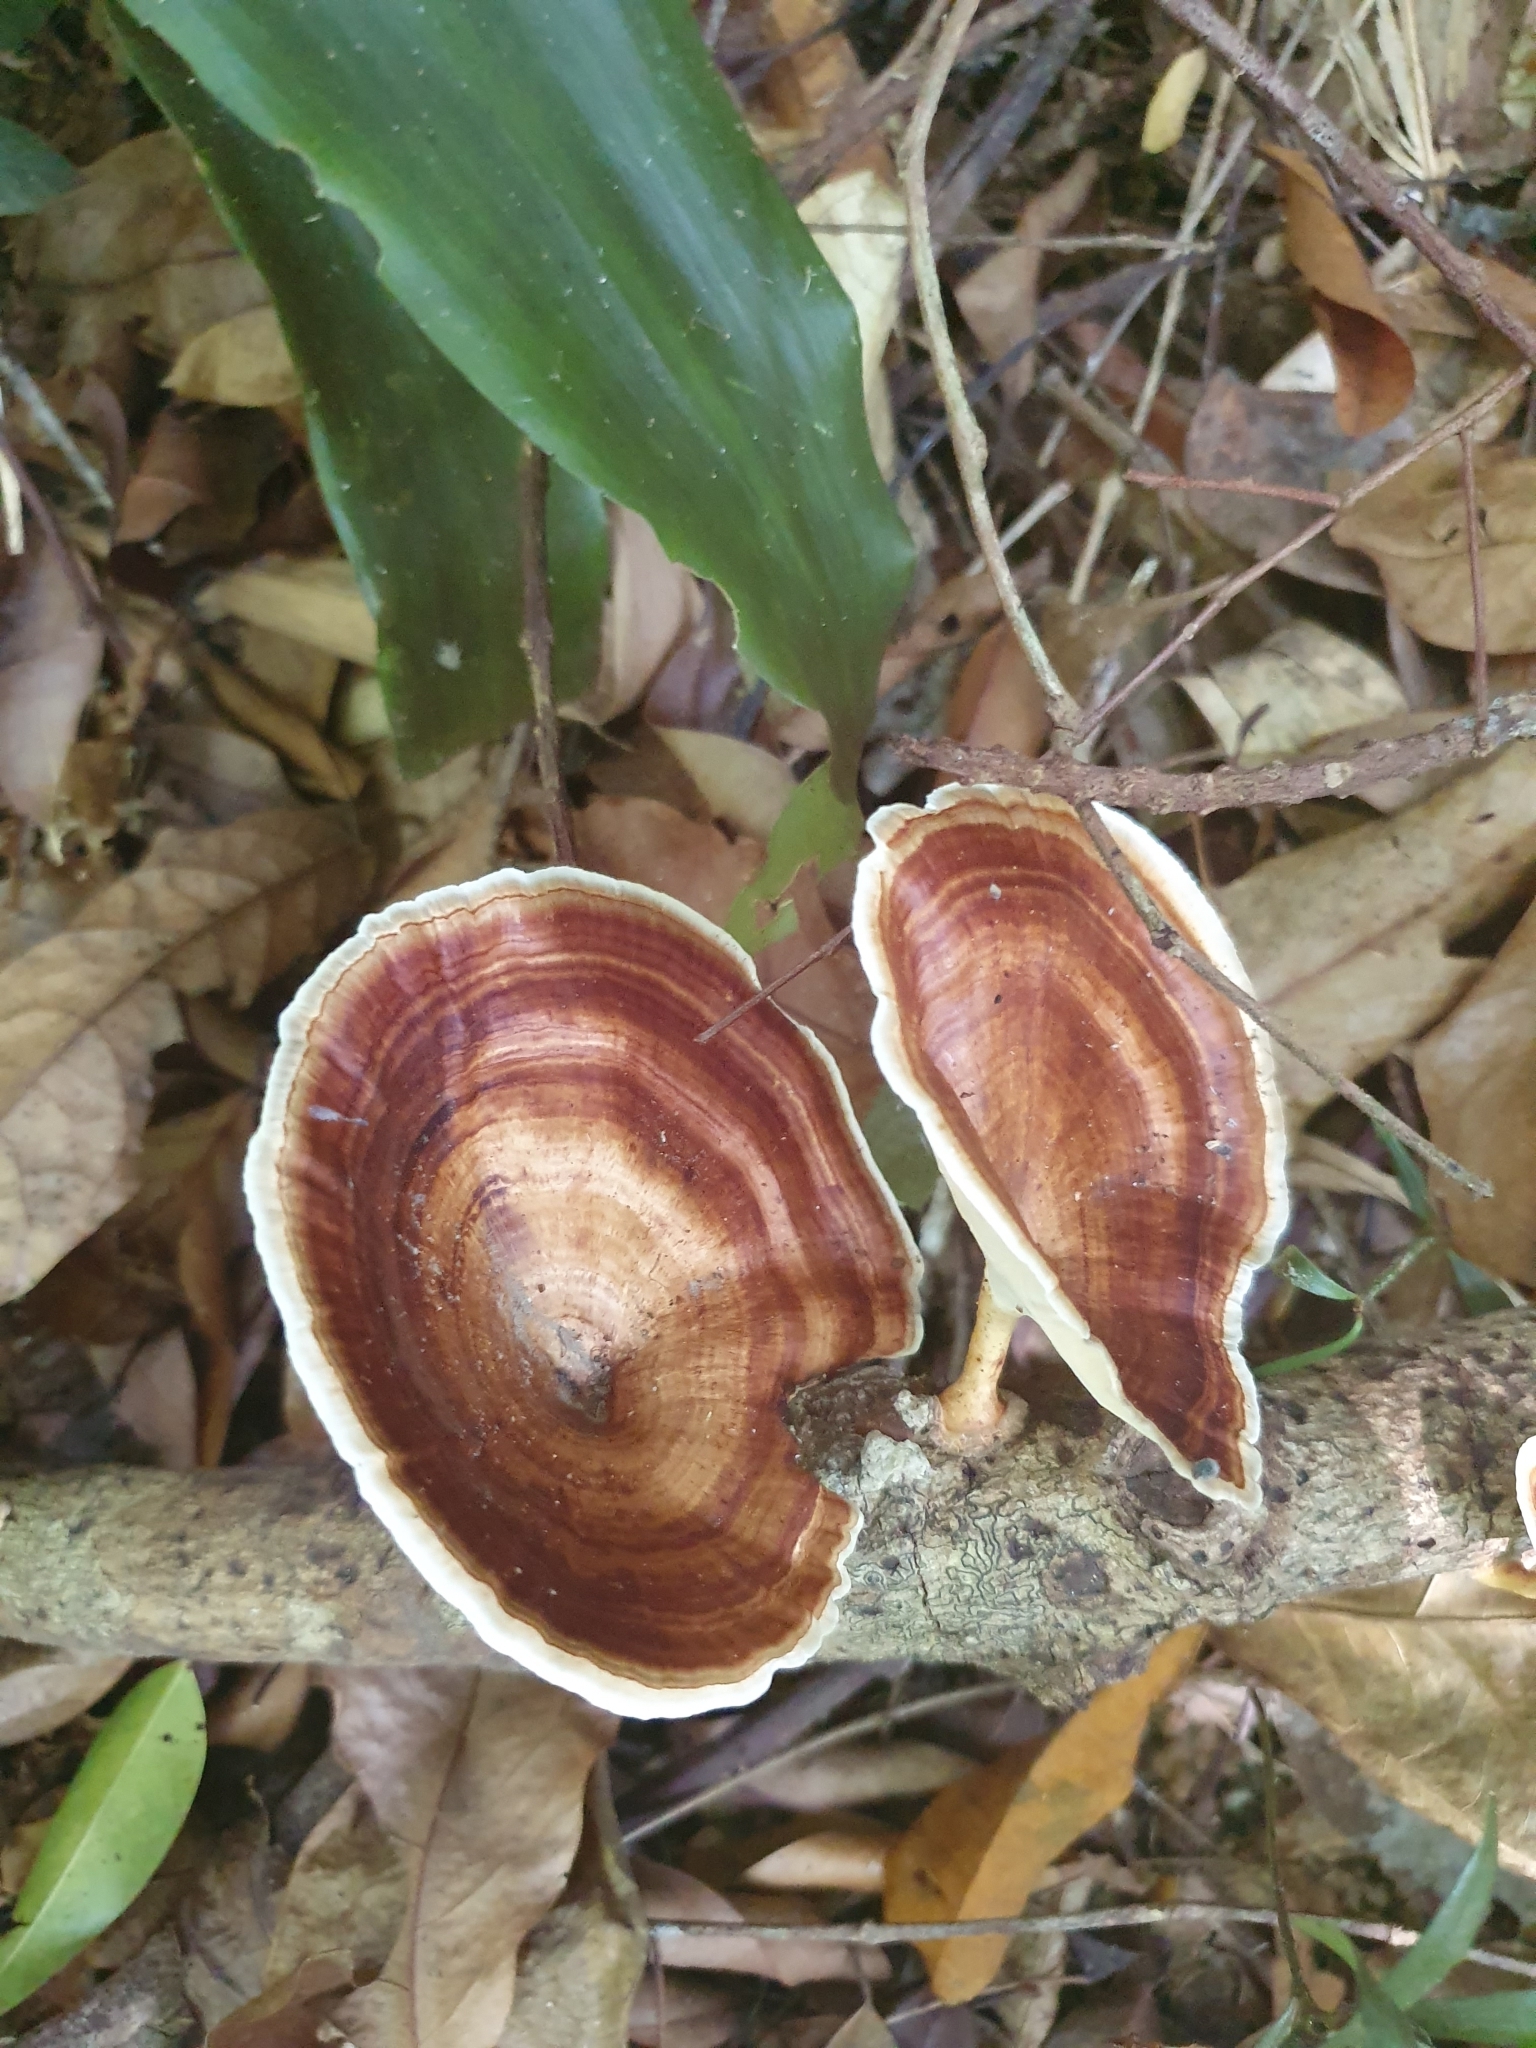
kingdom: Fungi
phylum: Basidiomycota
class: Agaricomycetes
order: Polyporales
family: Polyporaceae
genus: Microporus
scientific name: Microporus xanthopus
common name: Yellow-stemmed micropore
